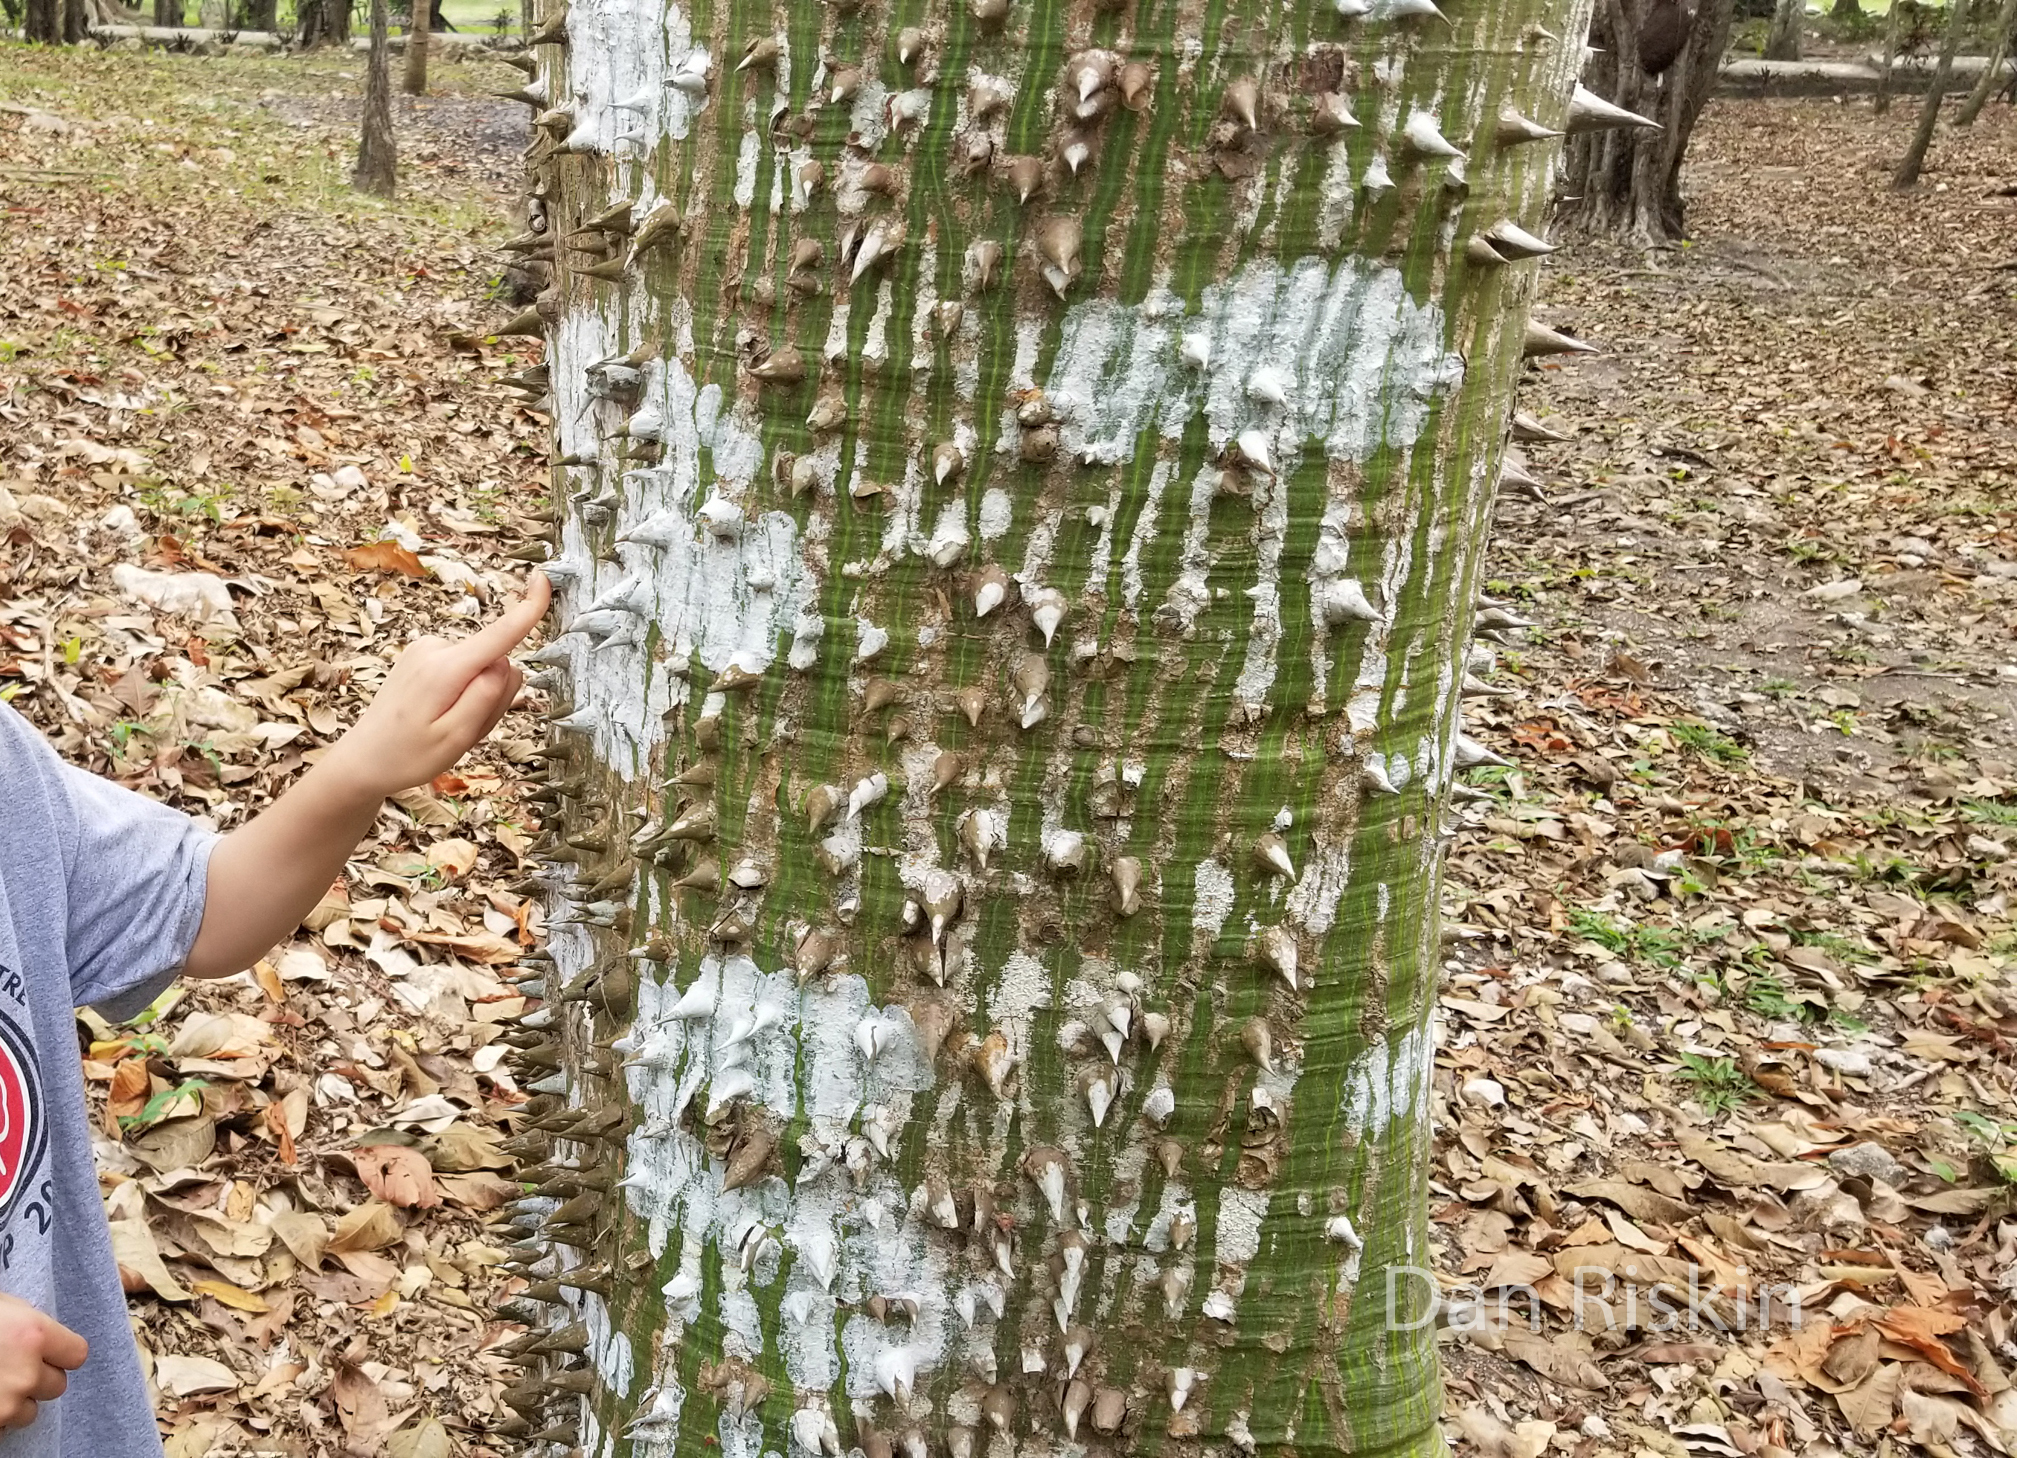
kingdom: Plantae
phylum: Tracheophyta
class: Magnoliopsida
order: Malvales
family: Malvaceae
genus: Ceiba
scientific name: Ceiba pentandra
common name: Kapok
